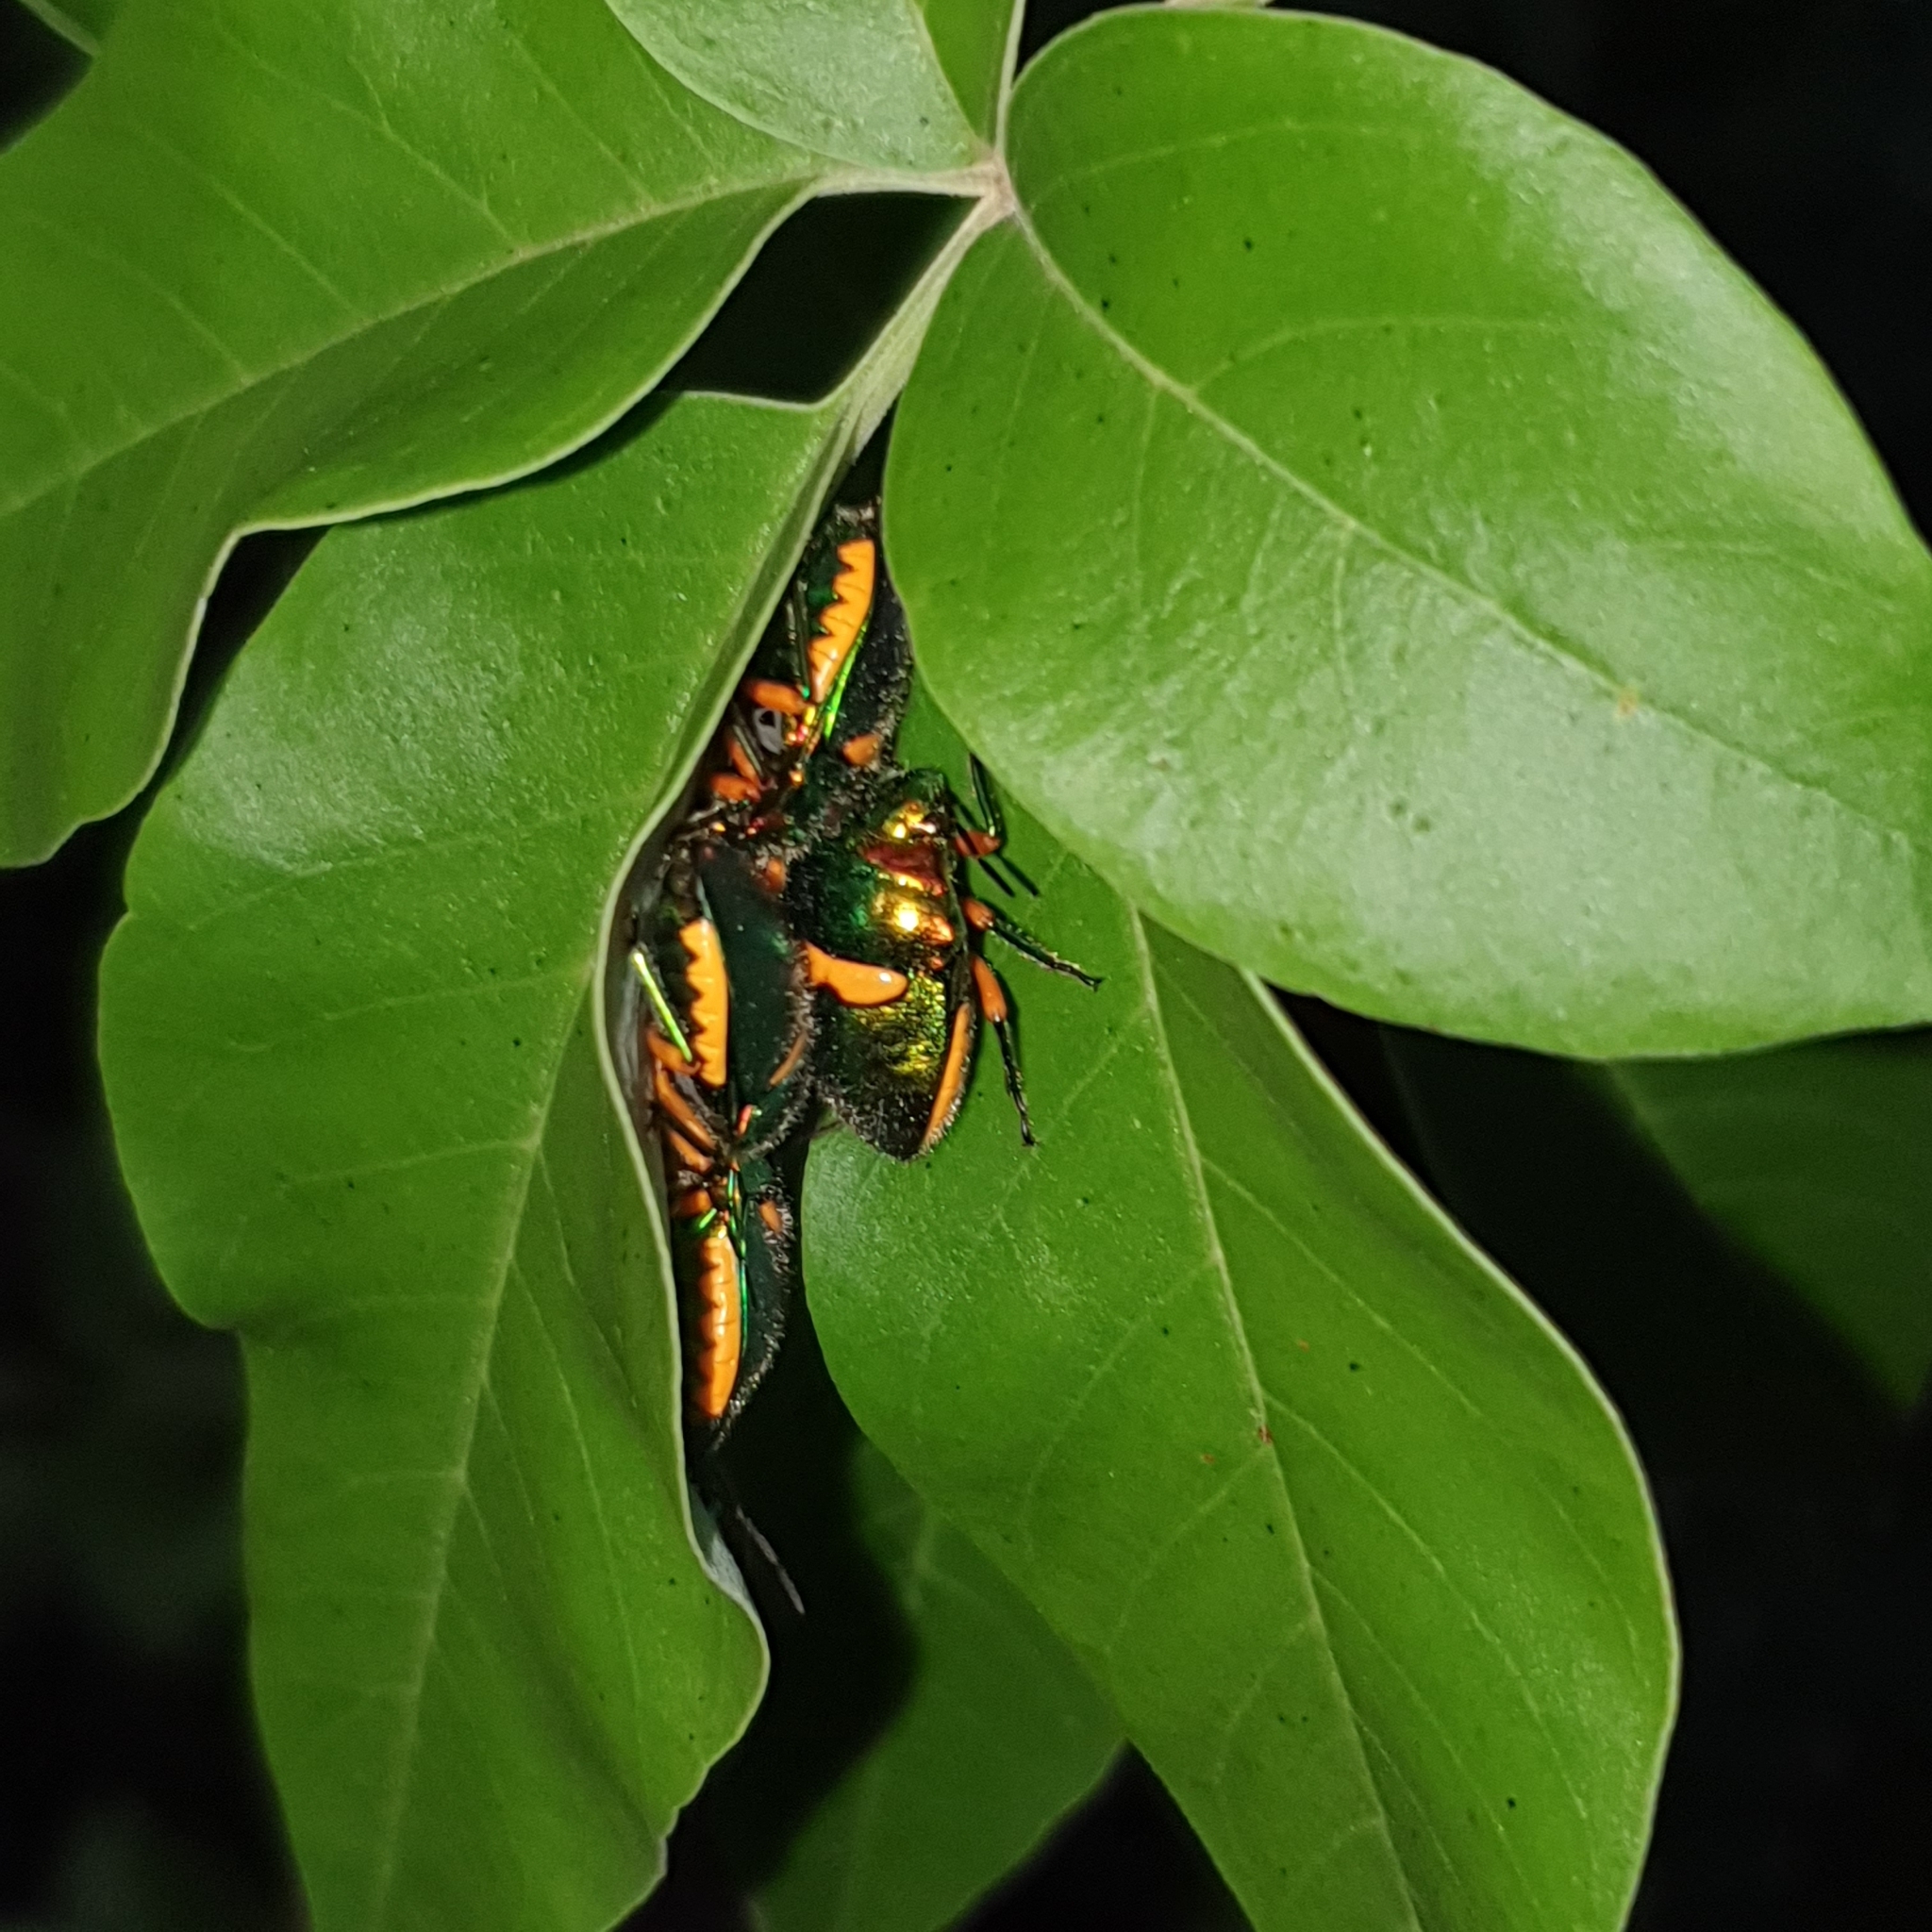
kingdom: Animalia
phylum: Arthropoda
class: Insecta
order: Hemiptera
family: Scutelleridae
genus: Lampromicra
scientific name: Lampromicra senator
